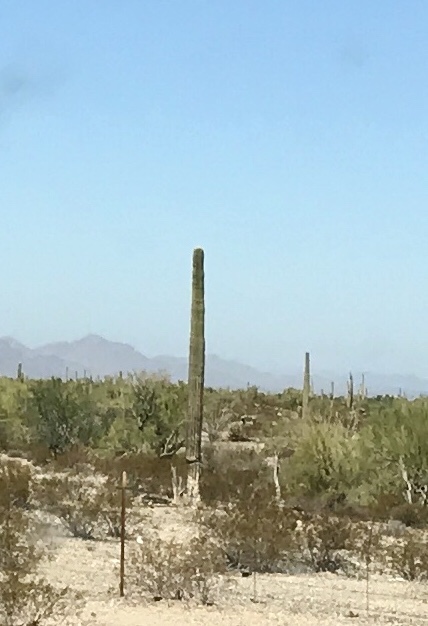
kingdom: Plantae
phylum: Tracheophyta
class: Magnoliopsida
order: Caryophyllales
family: Cactaceae
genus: Carnegiea
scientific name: Carnegiea gigantea
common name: Saguaro
